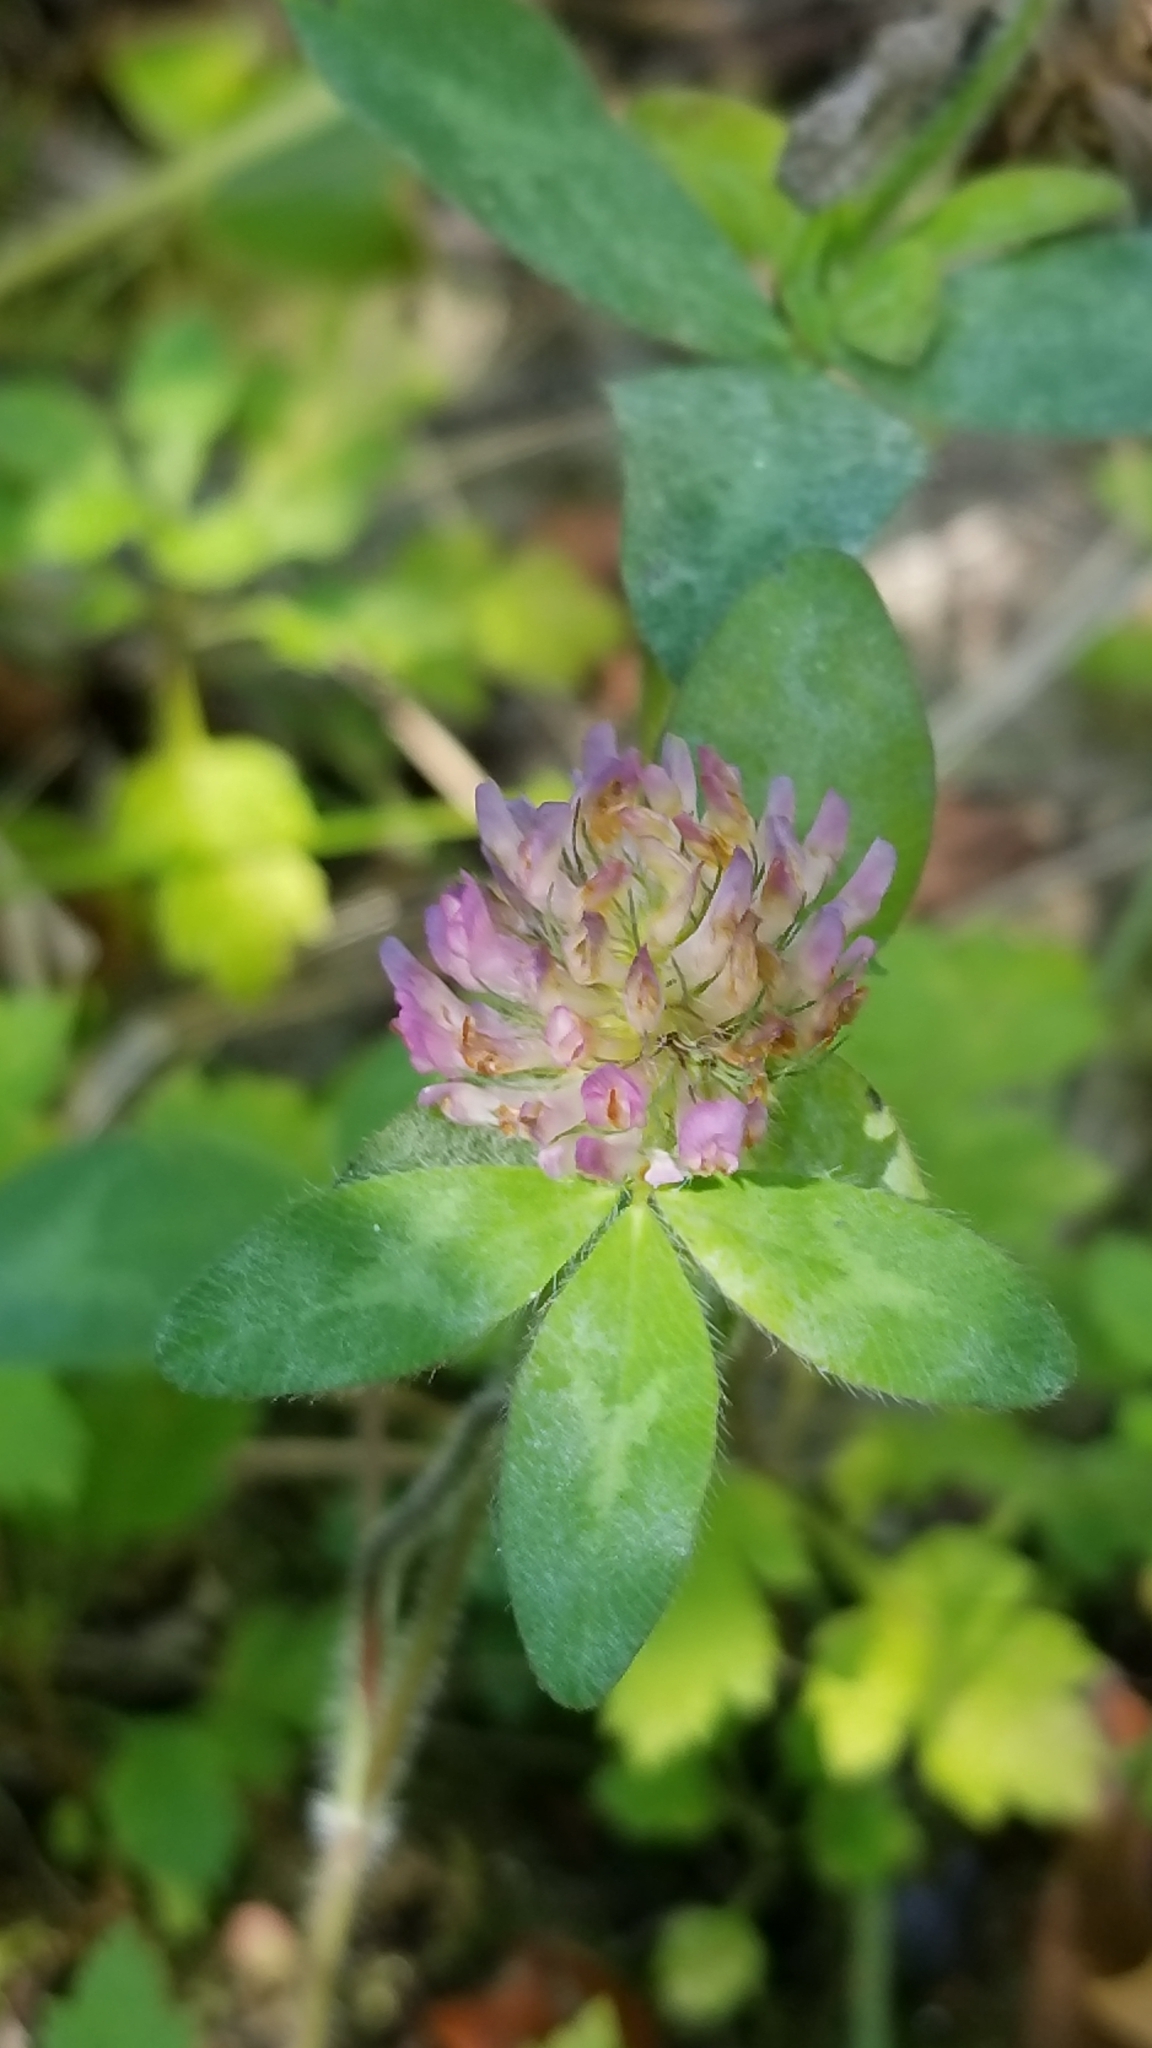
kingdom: Plantae
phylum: Tracheophyta
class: Magnoliopsida
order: Fabales
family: Fabaceae
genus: Trifolium
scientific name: Trifolium pratense
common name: Red clover
